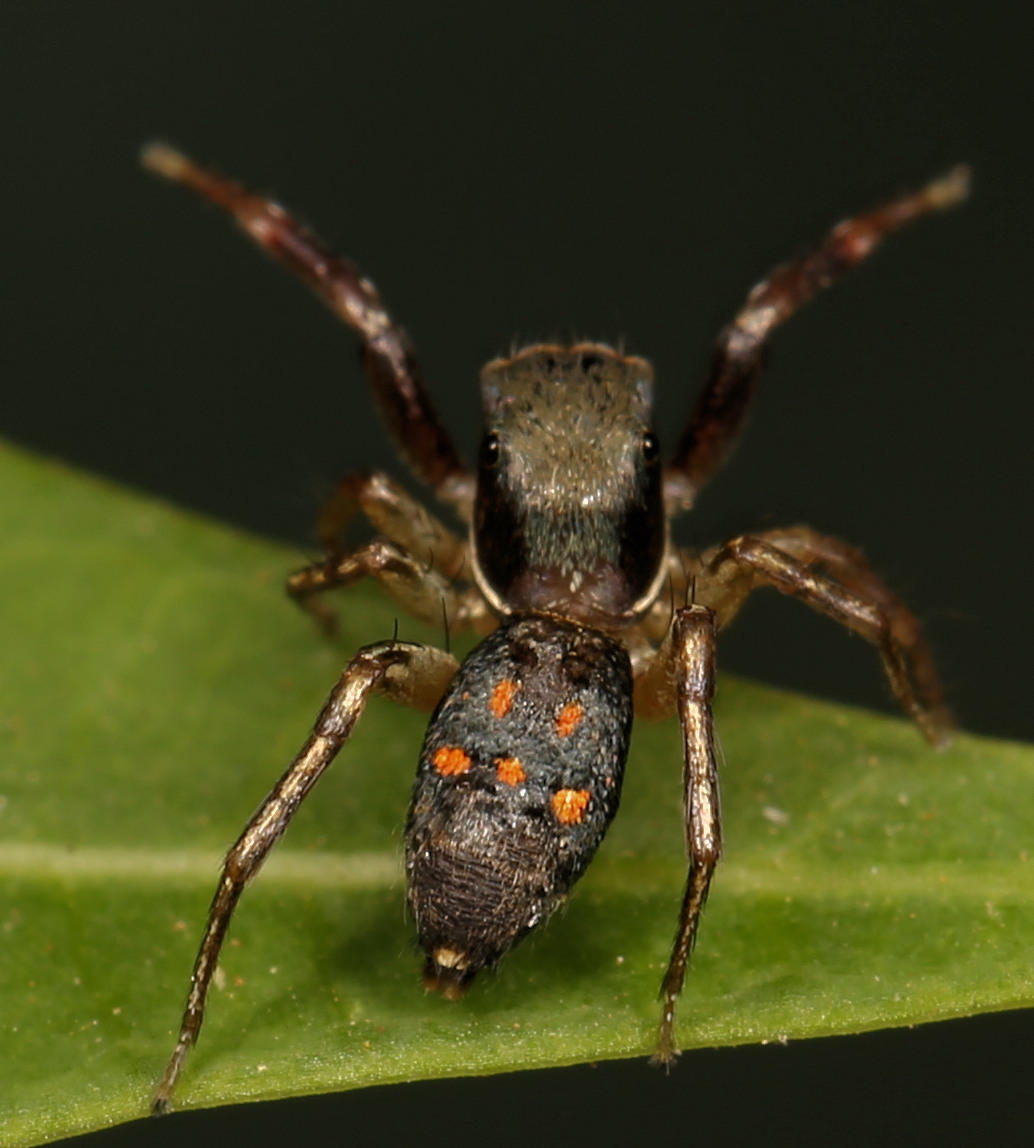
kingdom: Animalia
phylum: Arthropoda
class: Arachnida
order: Araneae
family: Salticidae
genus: Natta
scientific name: Natta horizontalis
